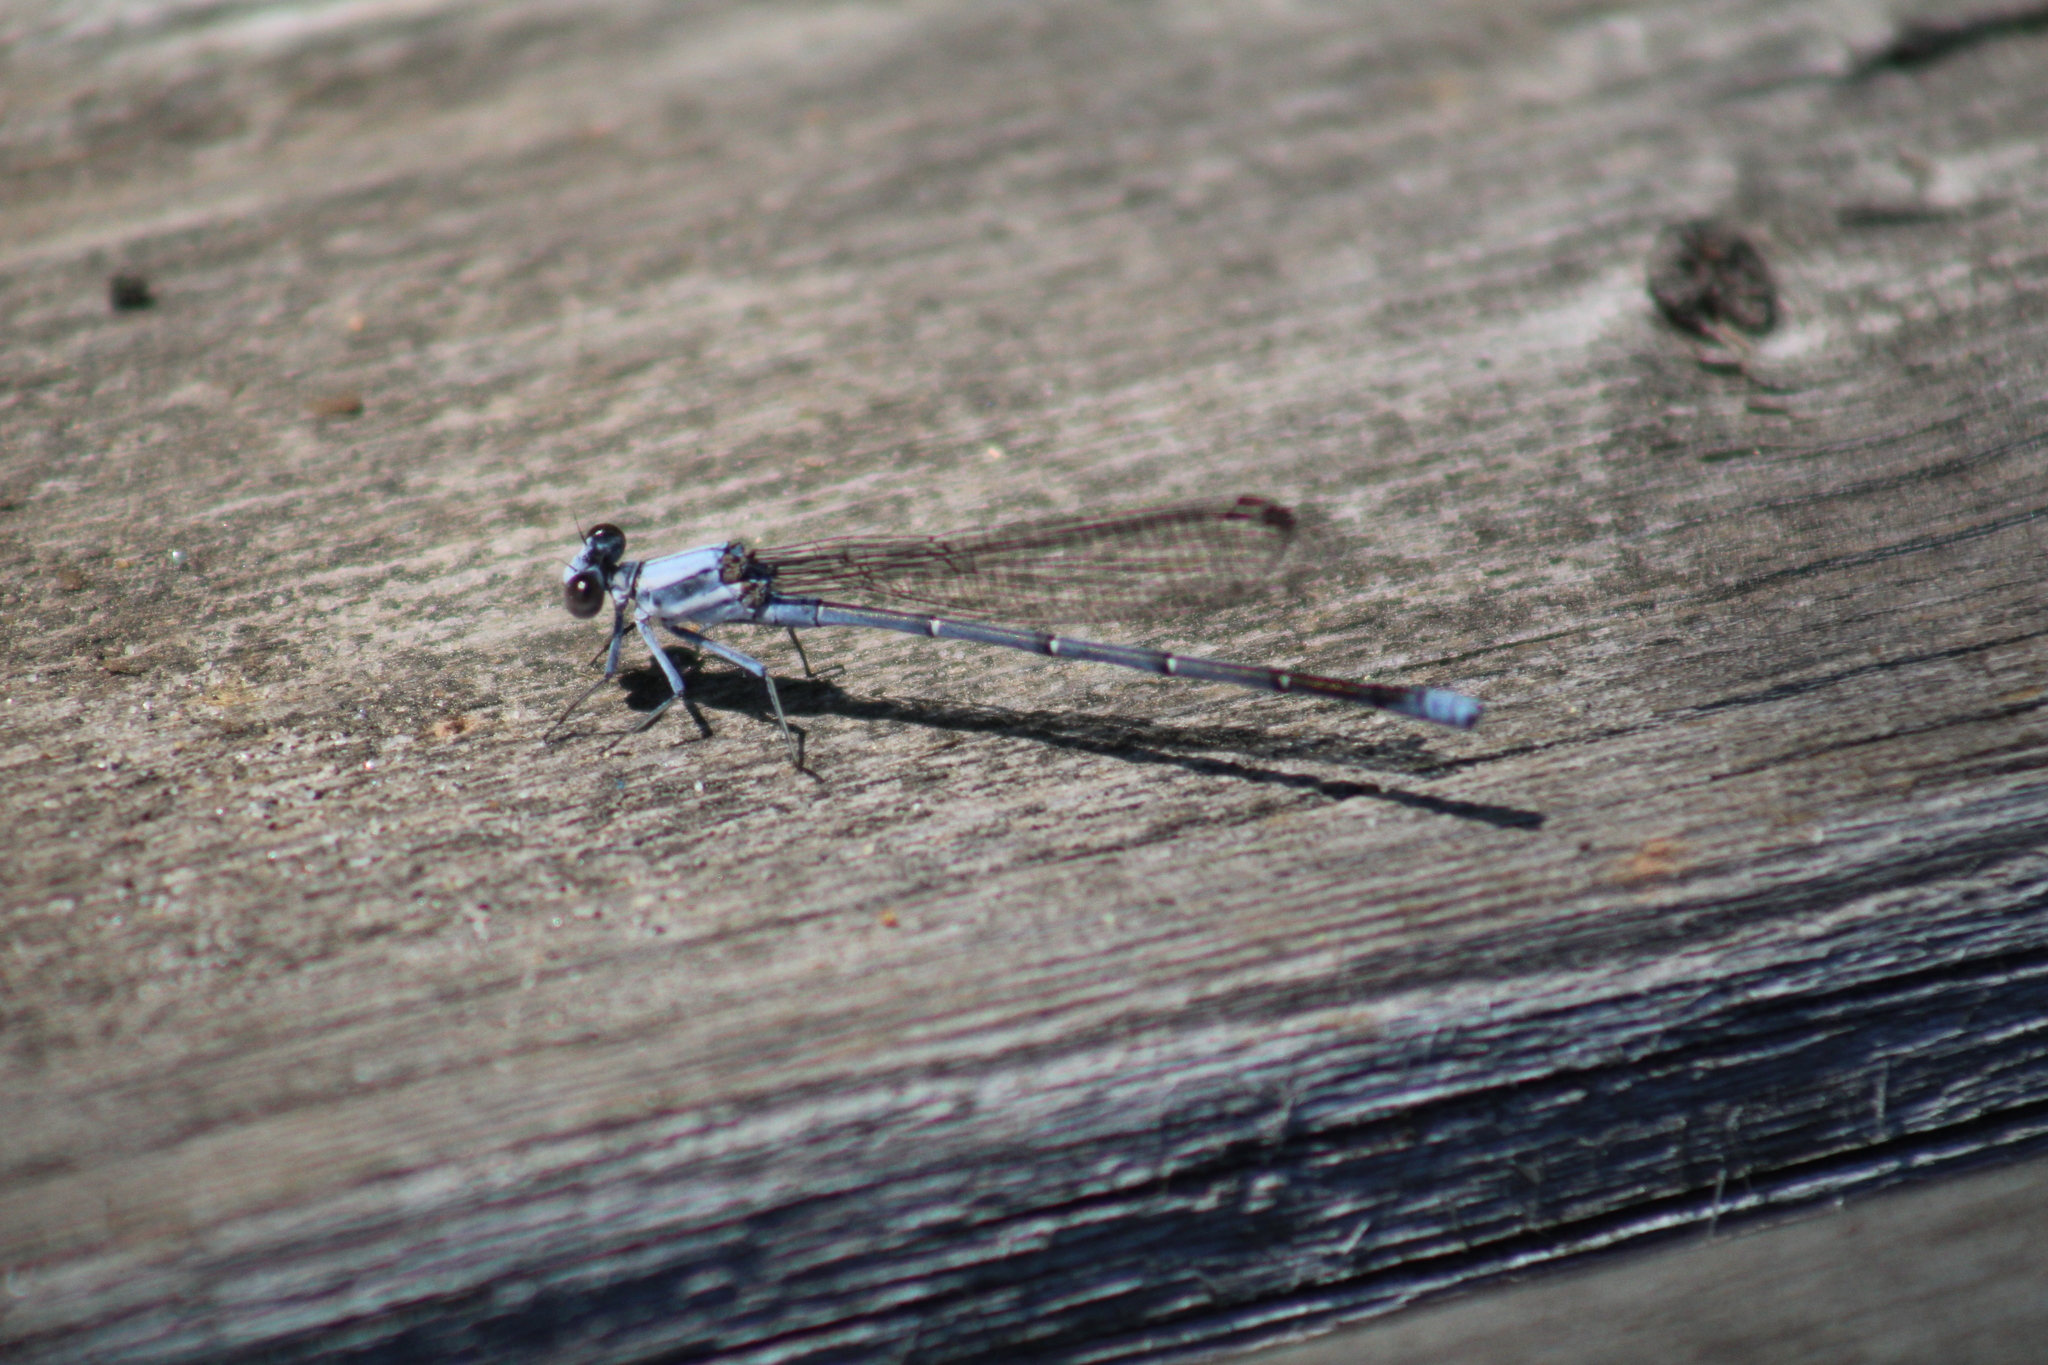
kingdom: Animalia
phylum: Arthropoda
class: Insecta
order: Odonata
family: Coenagrionidae
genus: Argia
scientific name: Argia moesta
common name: Powdered dancer
